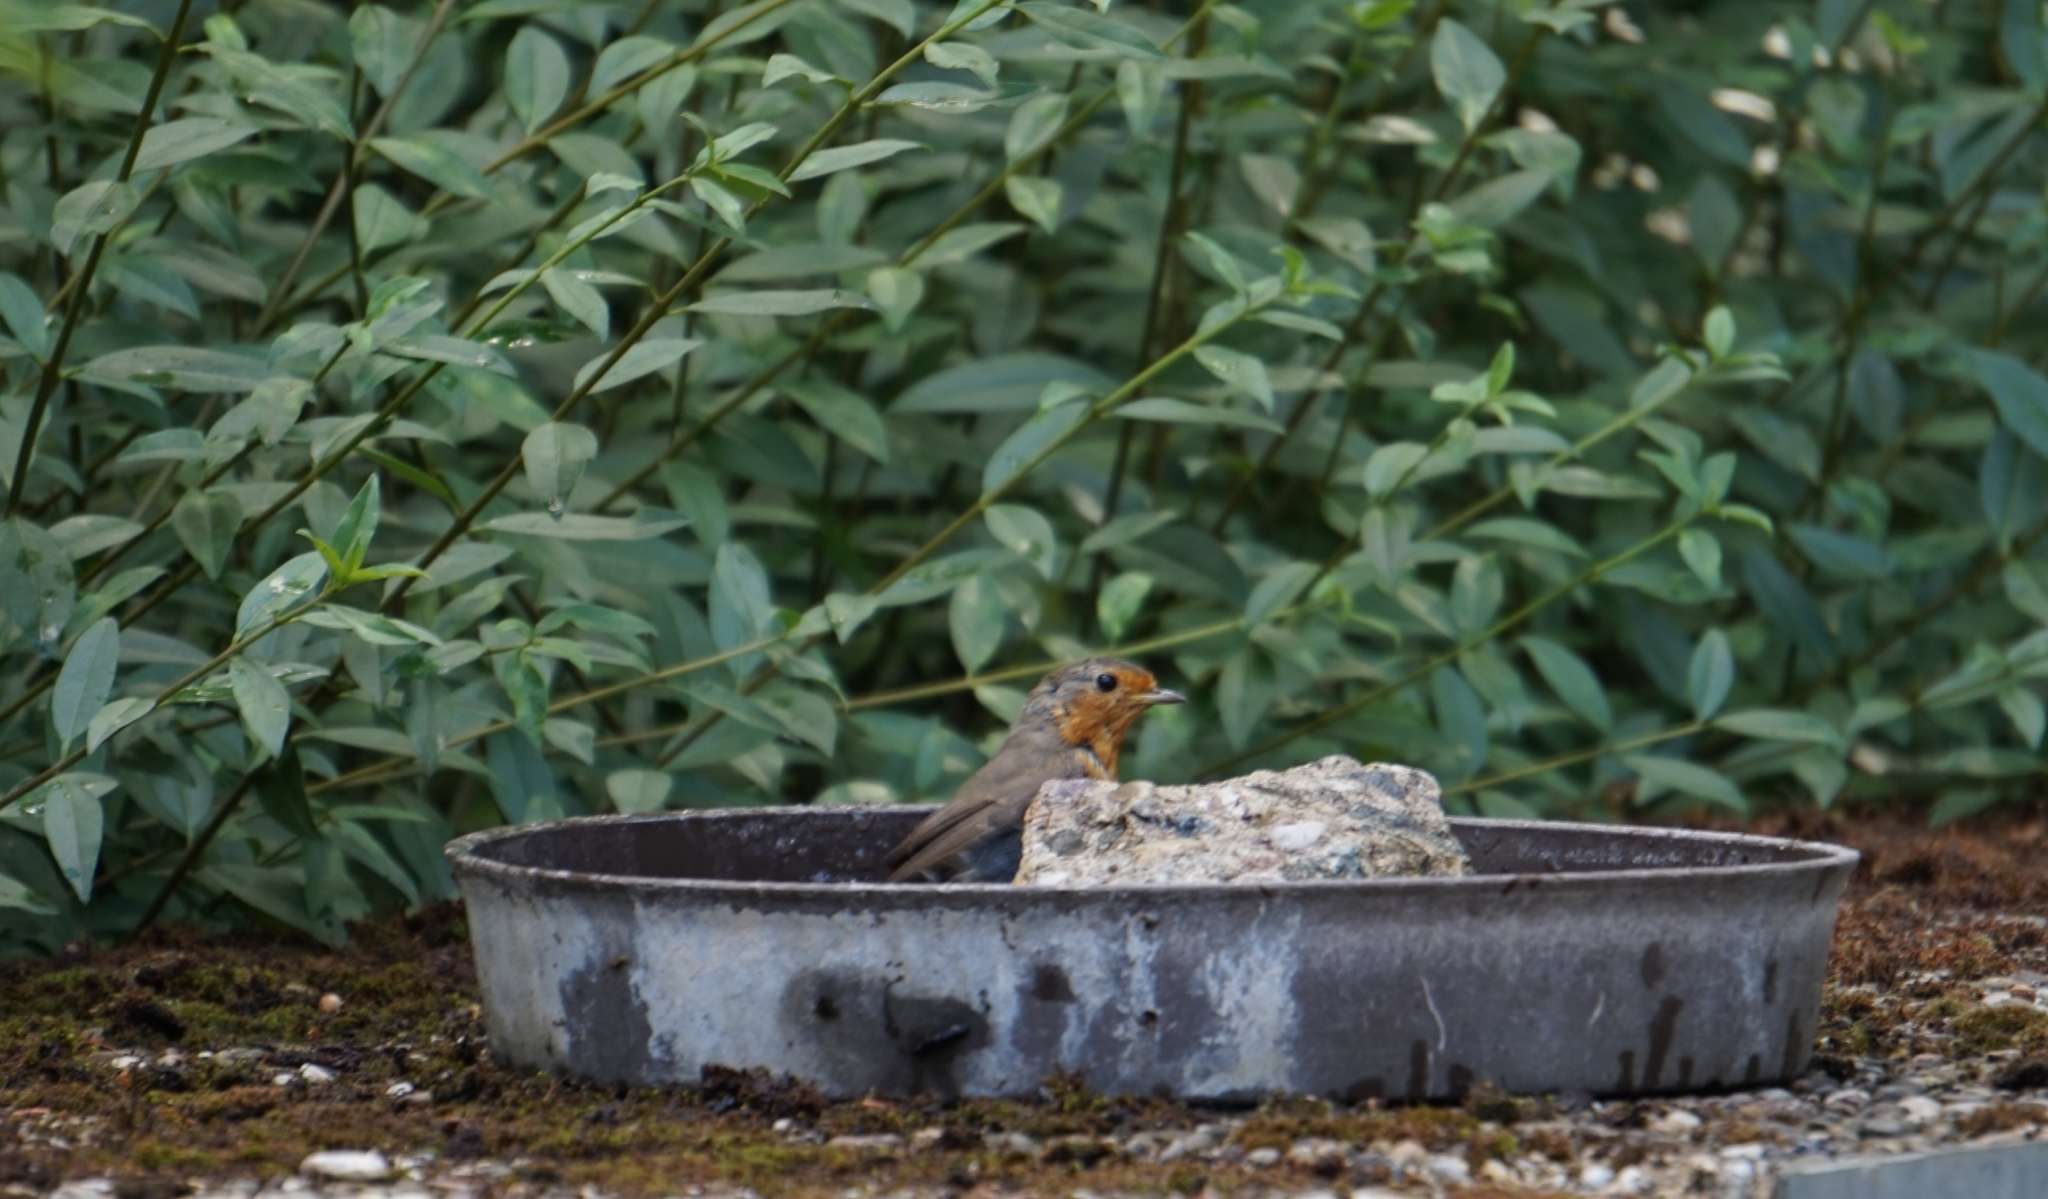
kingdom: Animalia
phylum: Chordata
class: Aves
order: Passeriformes
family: Muscicapidae
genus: Erithacus
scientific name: Erithacus rubecula
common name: European robin
